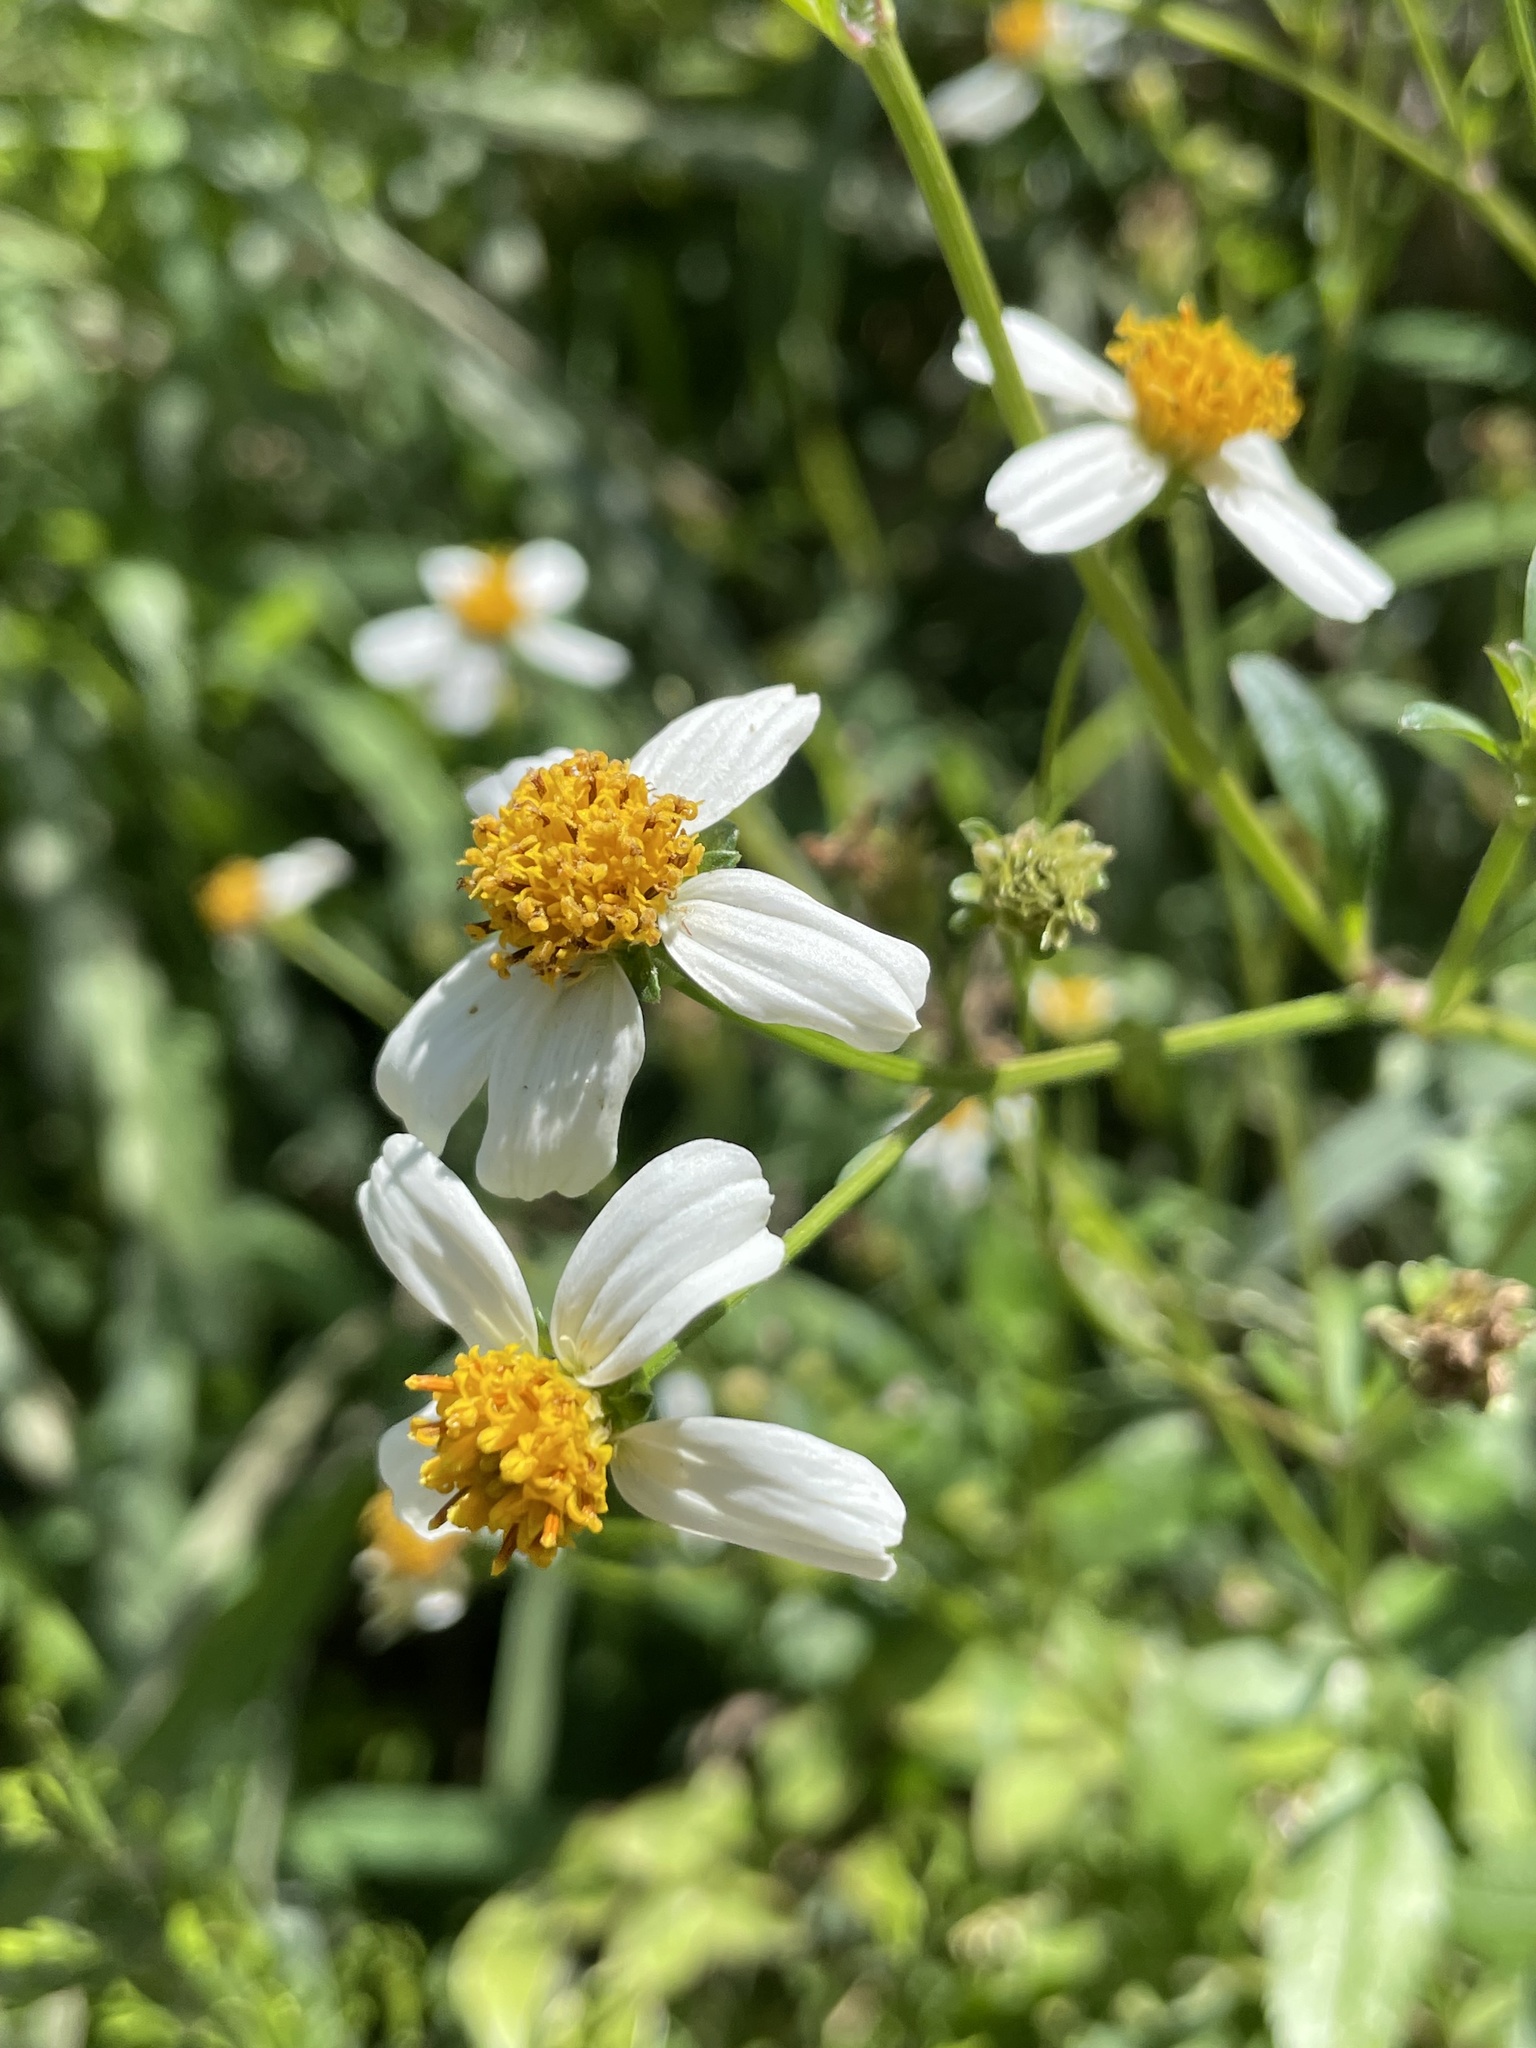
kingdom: Plantae
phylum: Tracheophyta
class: Magnoliopsida
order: Asterales
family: Asteraceae
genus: Bidens
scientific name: Bidens alba
